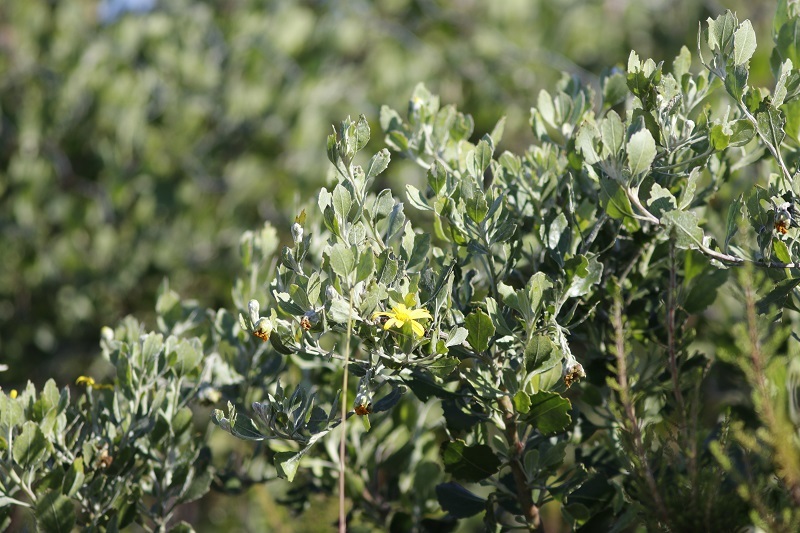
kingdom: Plantae
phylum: Tracheophyta
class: Magnoliopsida
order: Asterales
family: Asteraceae
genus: Osteospermum
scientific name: Osteospermum moniliferum
